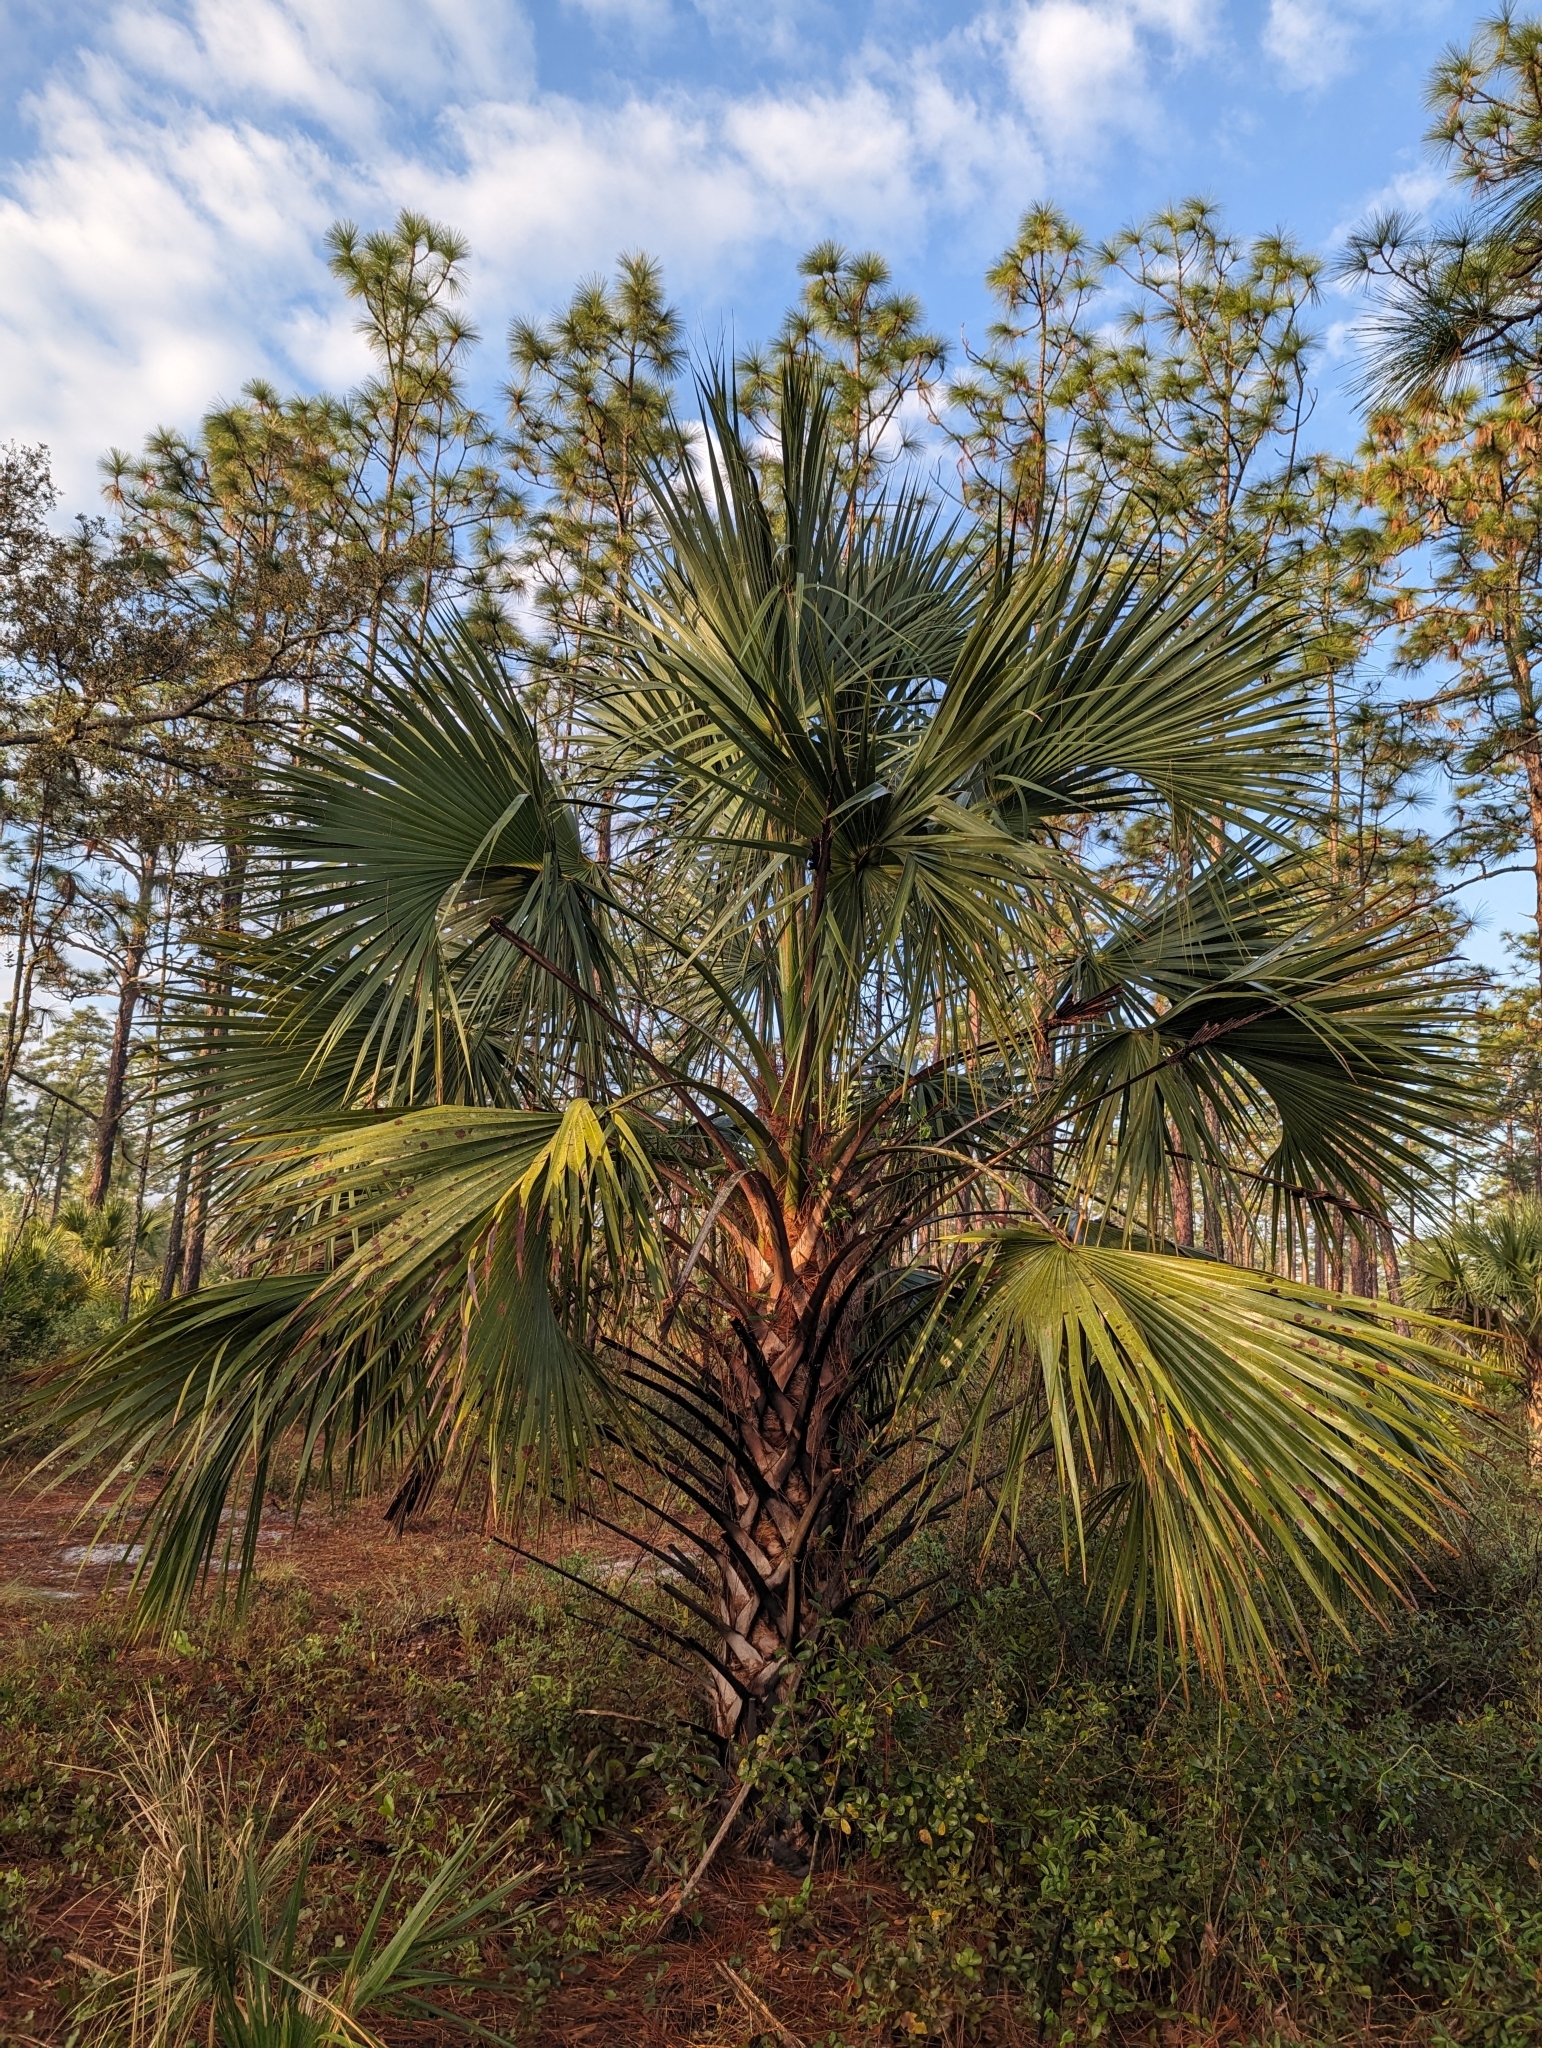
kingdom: Plantae
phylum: Tracheophyta
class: Liliopsida
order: Arecales
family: Arecaceae
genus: Sabal
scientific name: Sabal palmetto
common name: Blue palmetto
